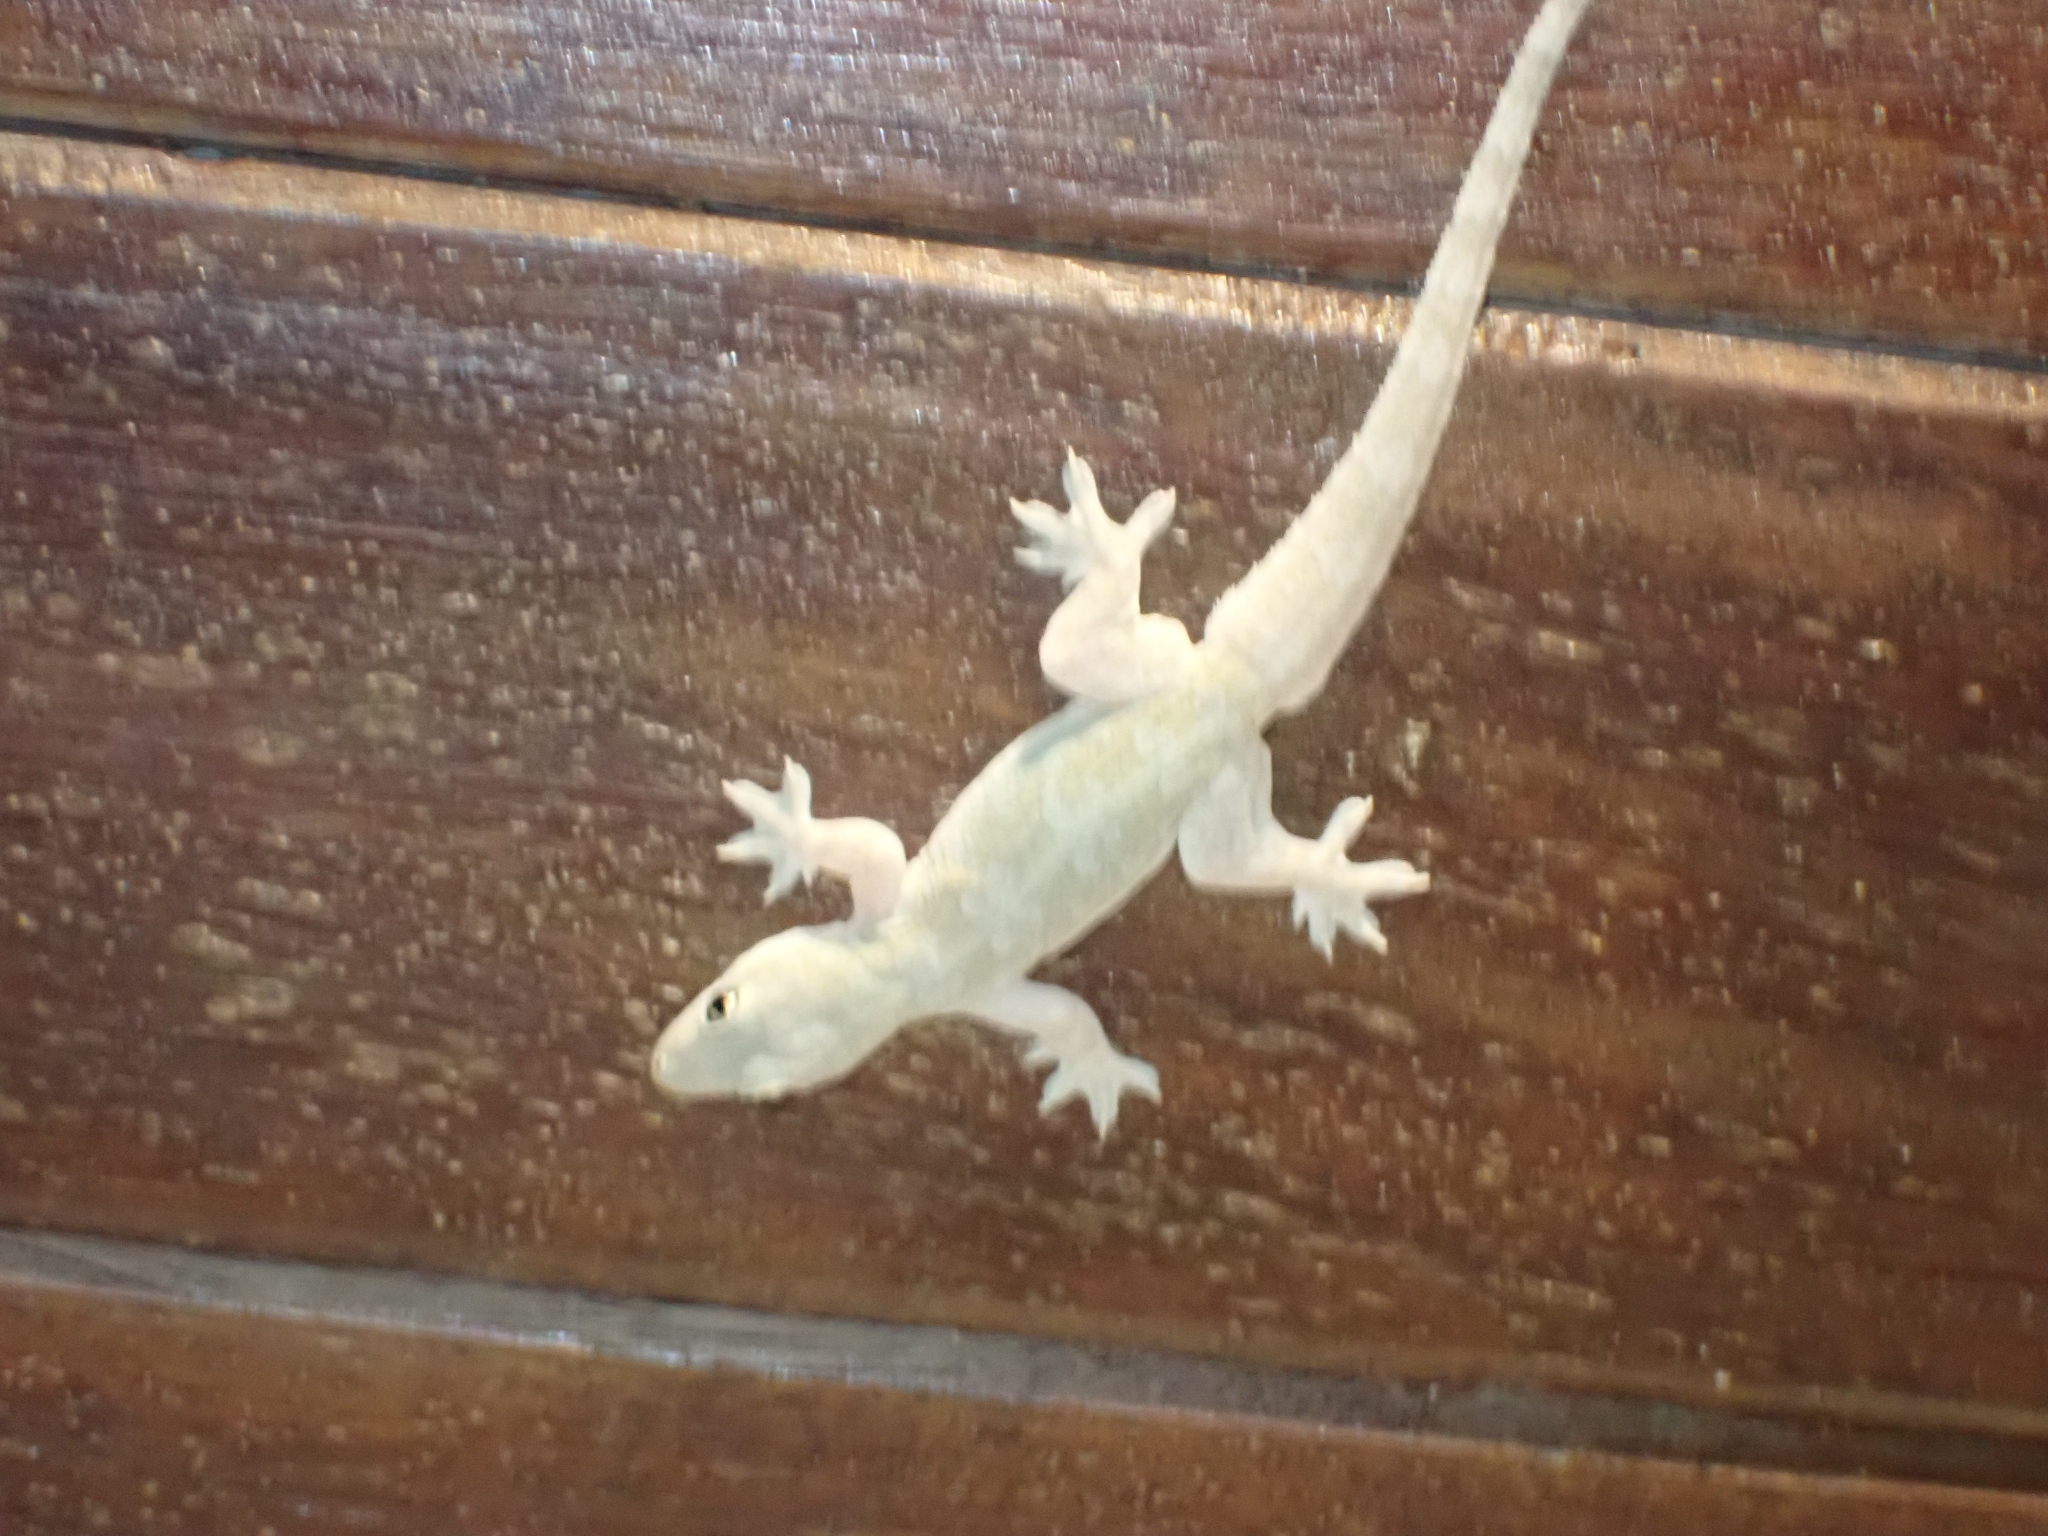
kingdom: Animalia
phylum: Chordata
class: Squamata
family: Gekkonidae
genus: Hemidactylus
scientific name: Hemidactylus platyurus
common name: Flat-tailed house gecko
